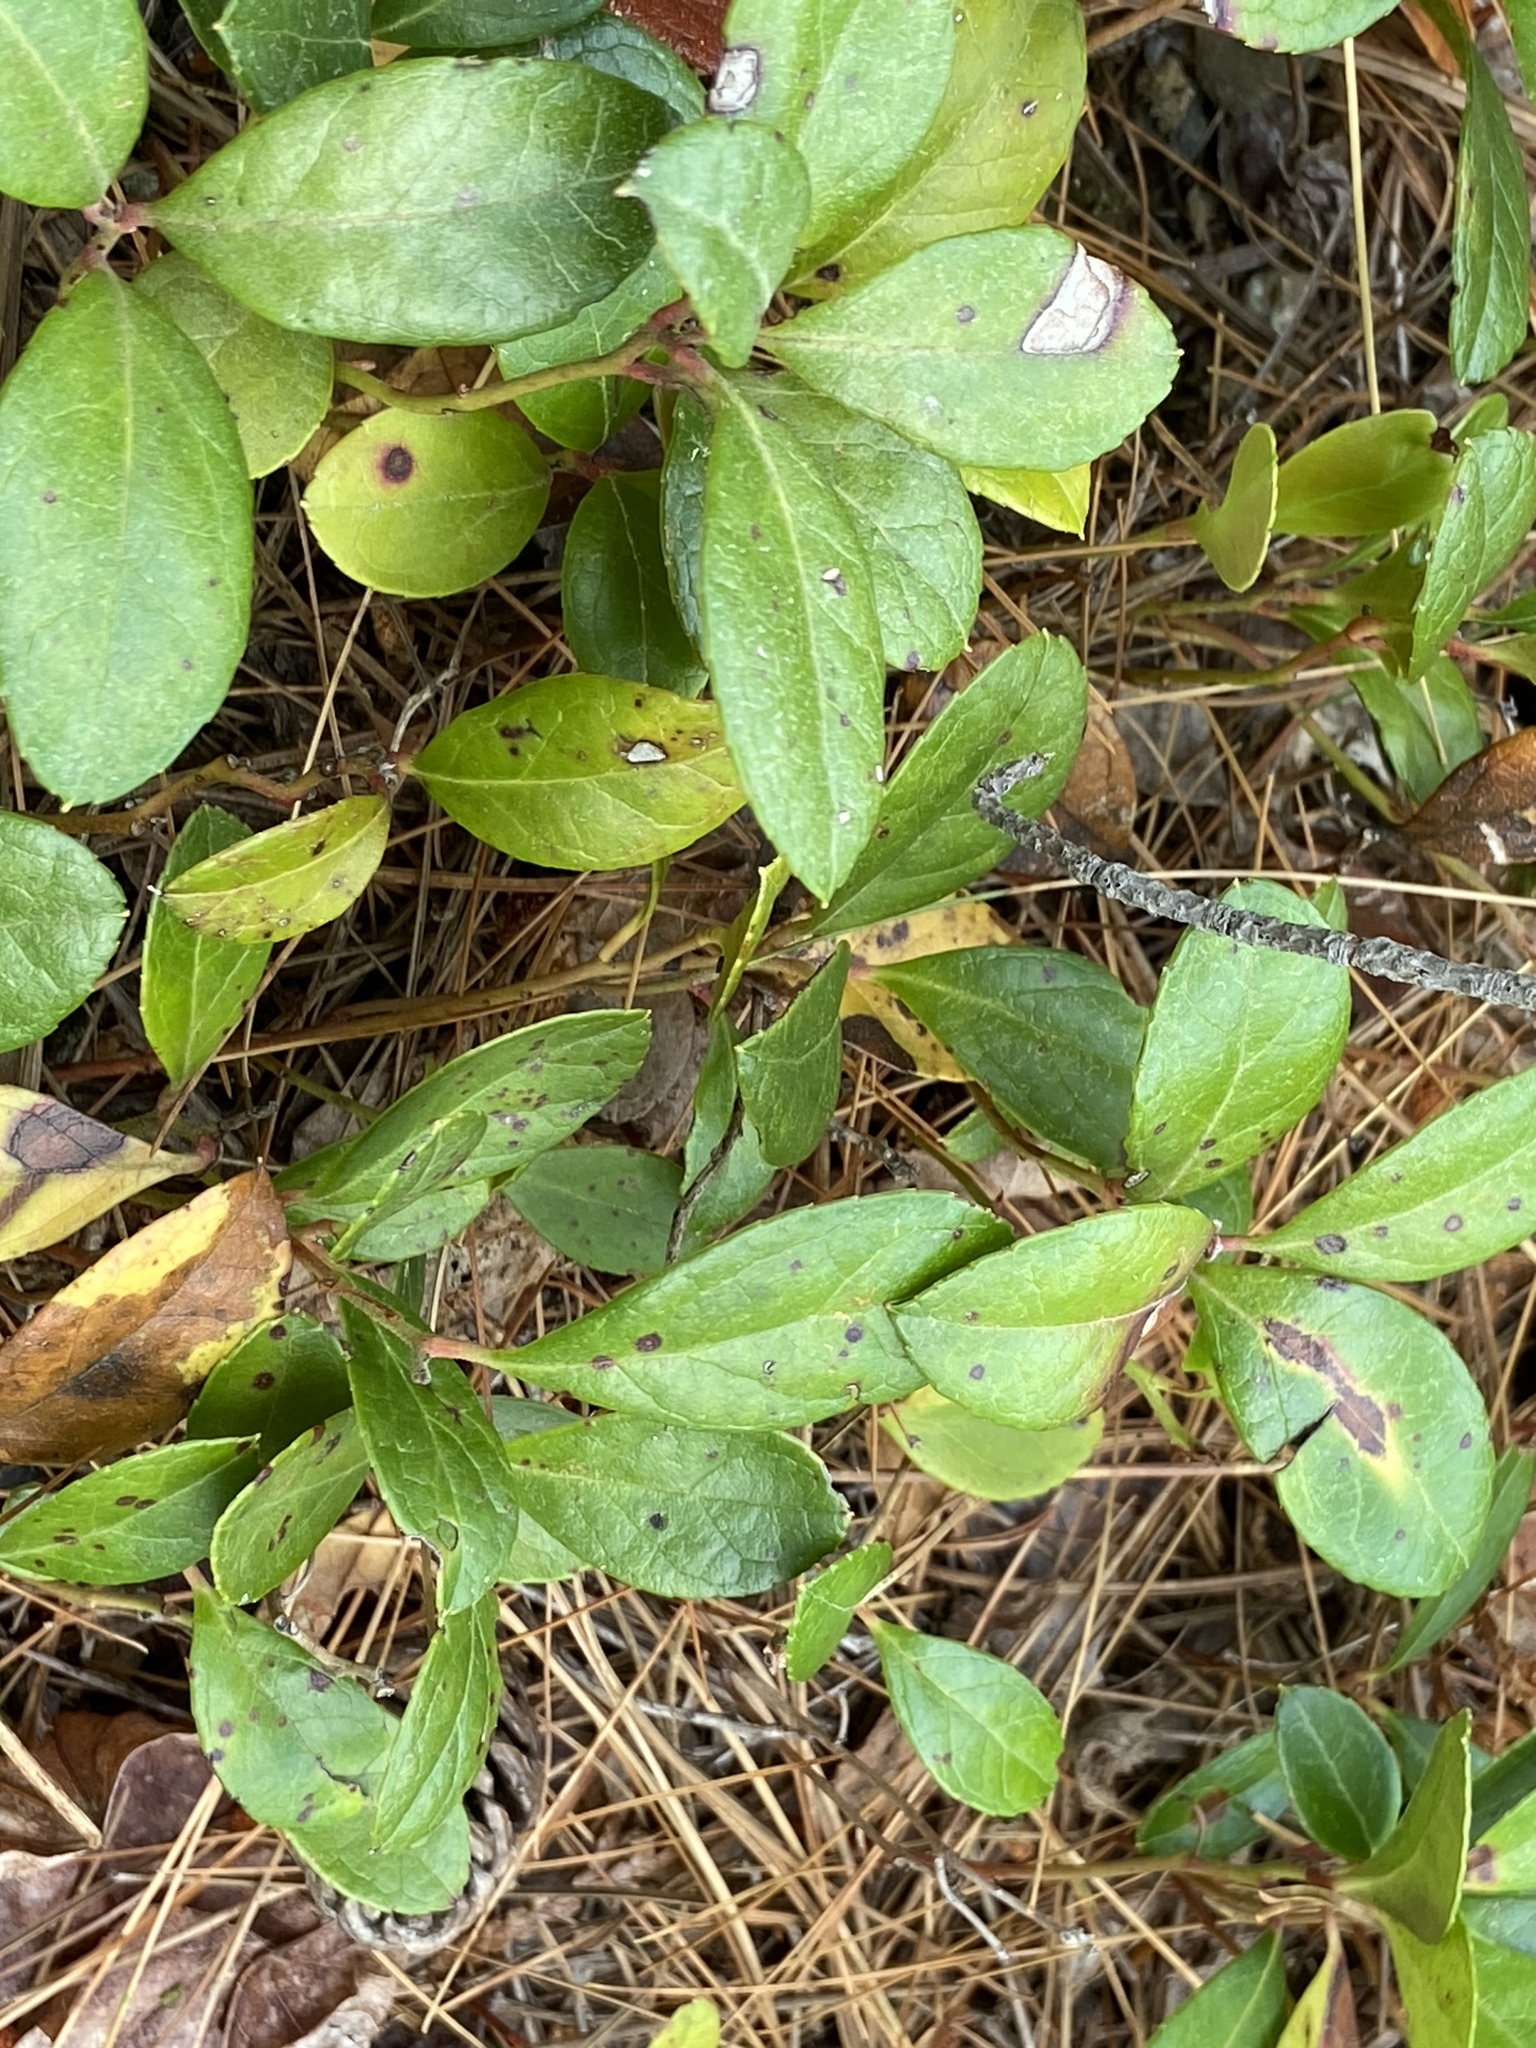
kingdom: Plantae
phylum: Tracheophyta
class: Magnoliopsida
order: Ericales
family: Ericaceae
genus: Gaultheria
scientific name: Gaultheria procumbens
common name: Checkerberry
